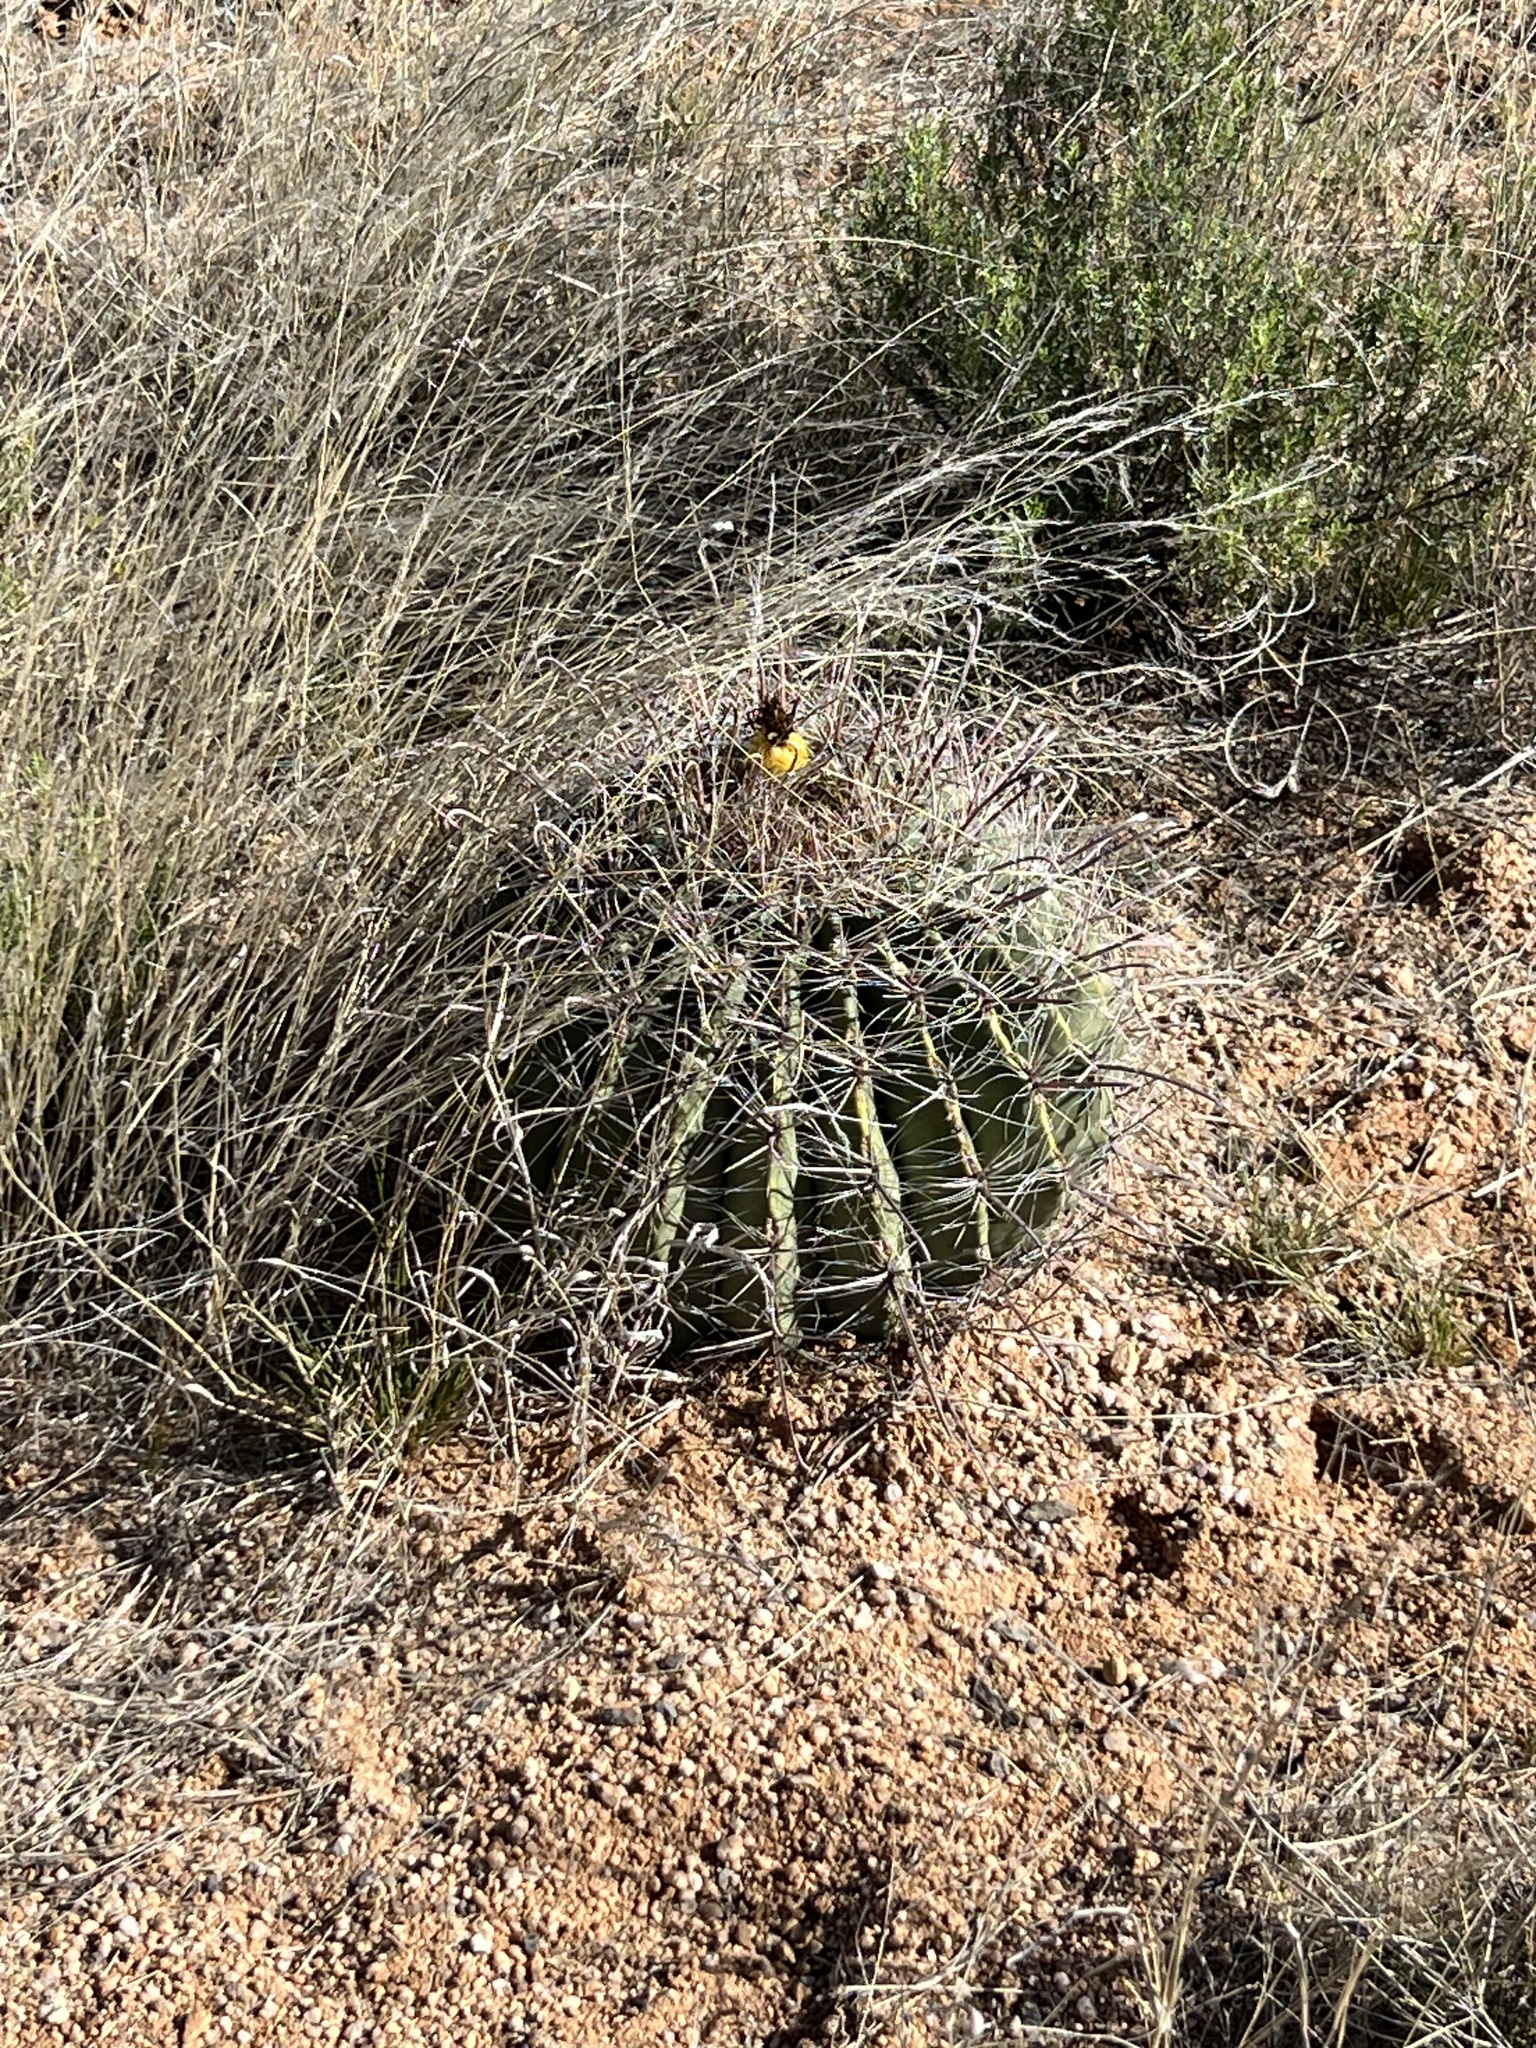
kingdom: Plantae
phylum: Tracheophyta
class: Magnoliopsida
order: Caryophyllales
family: Cactaceae
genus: Ferocactus
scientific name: Ferocactus wislizeni
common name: Candy barrel cactus
